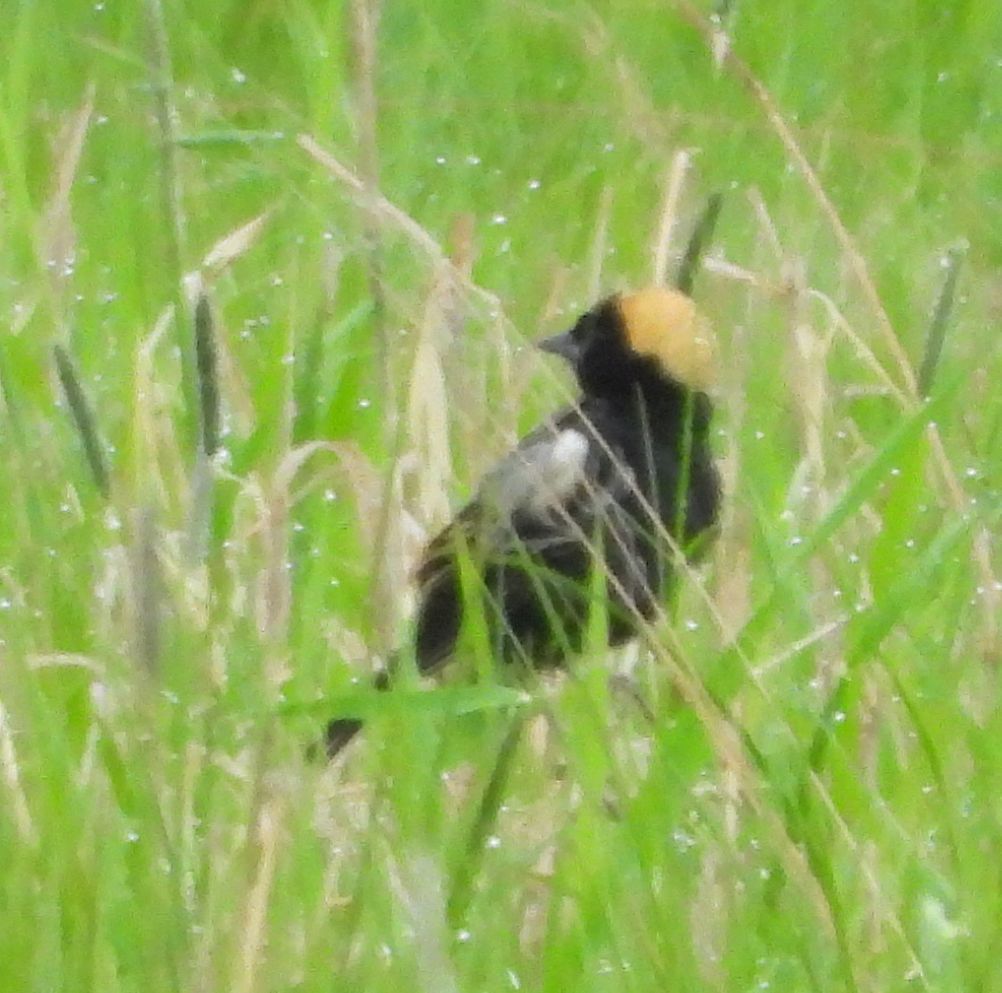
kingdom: Animalia
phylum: Chordata
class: Aves
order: Passeriformes
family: Icteridae
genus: Dolichonyx
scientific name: Dolichonyx oryzivorus
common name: Bobolink
